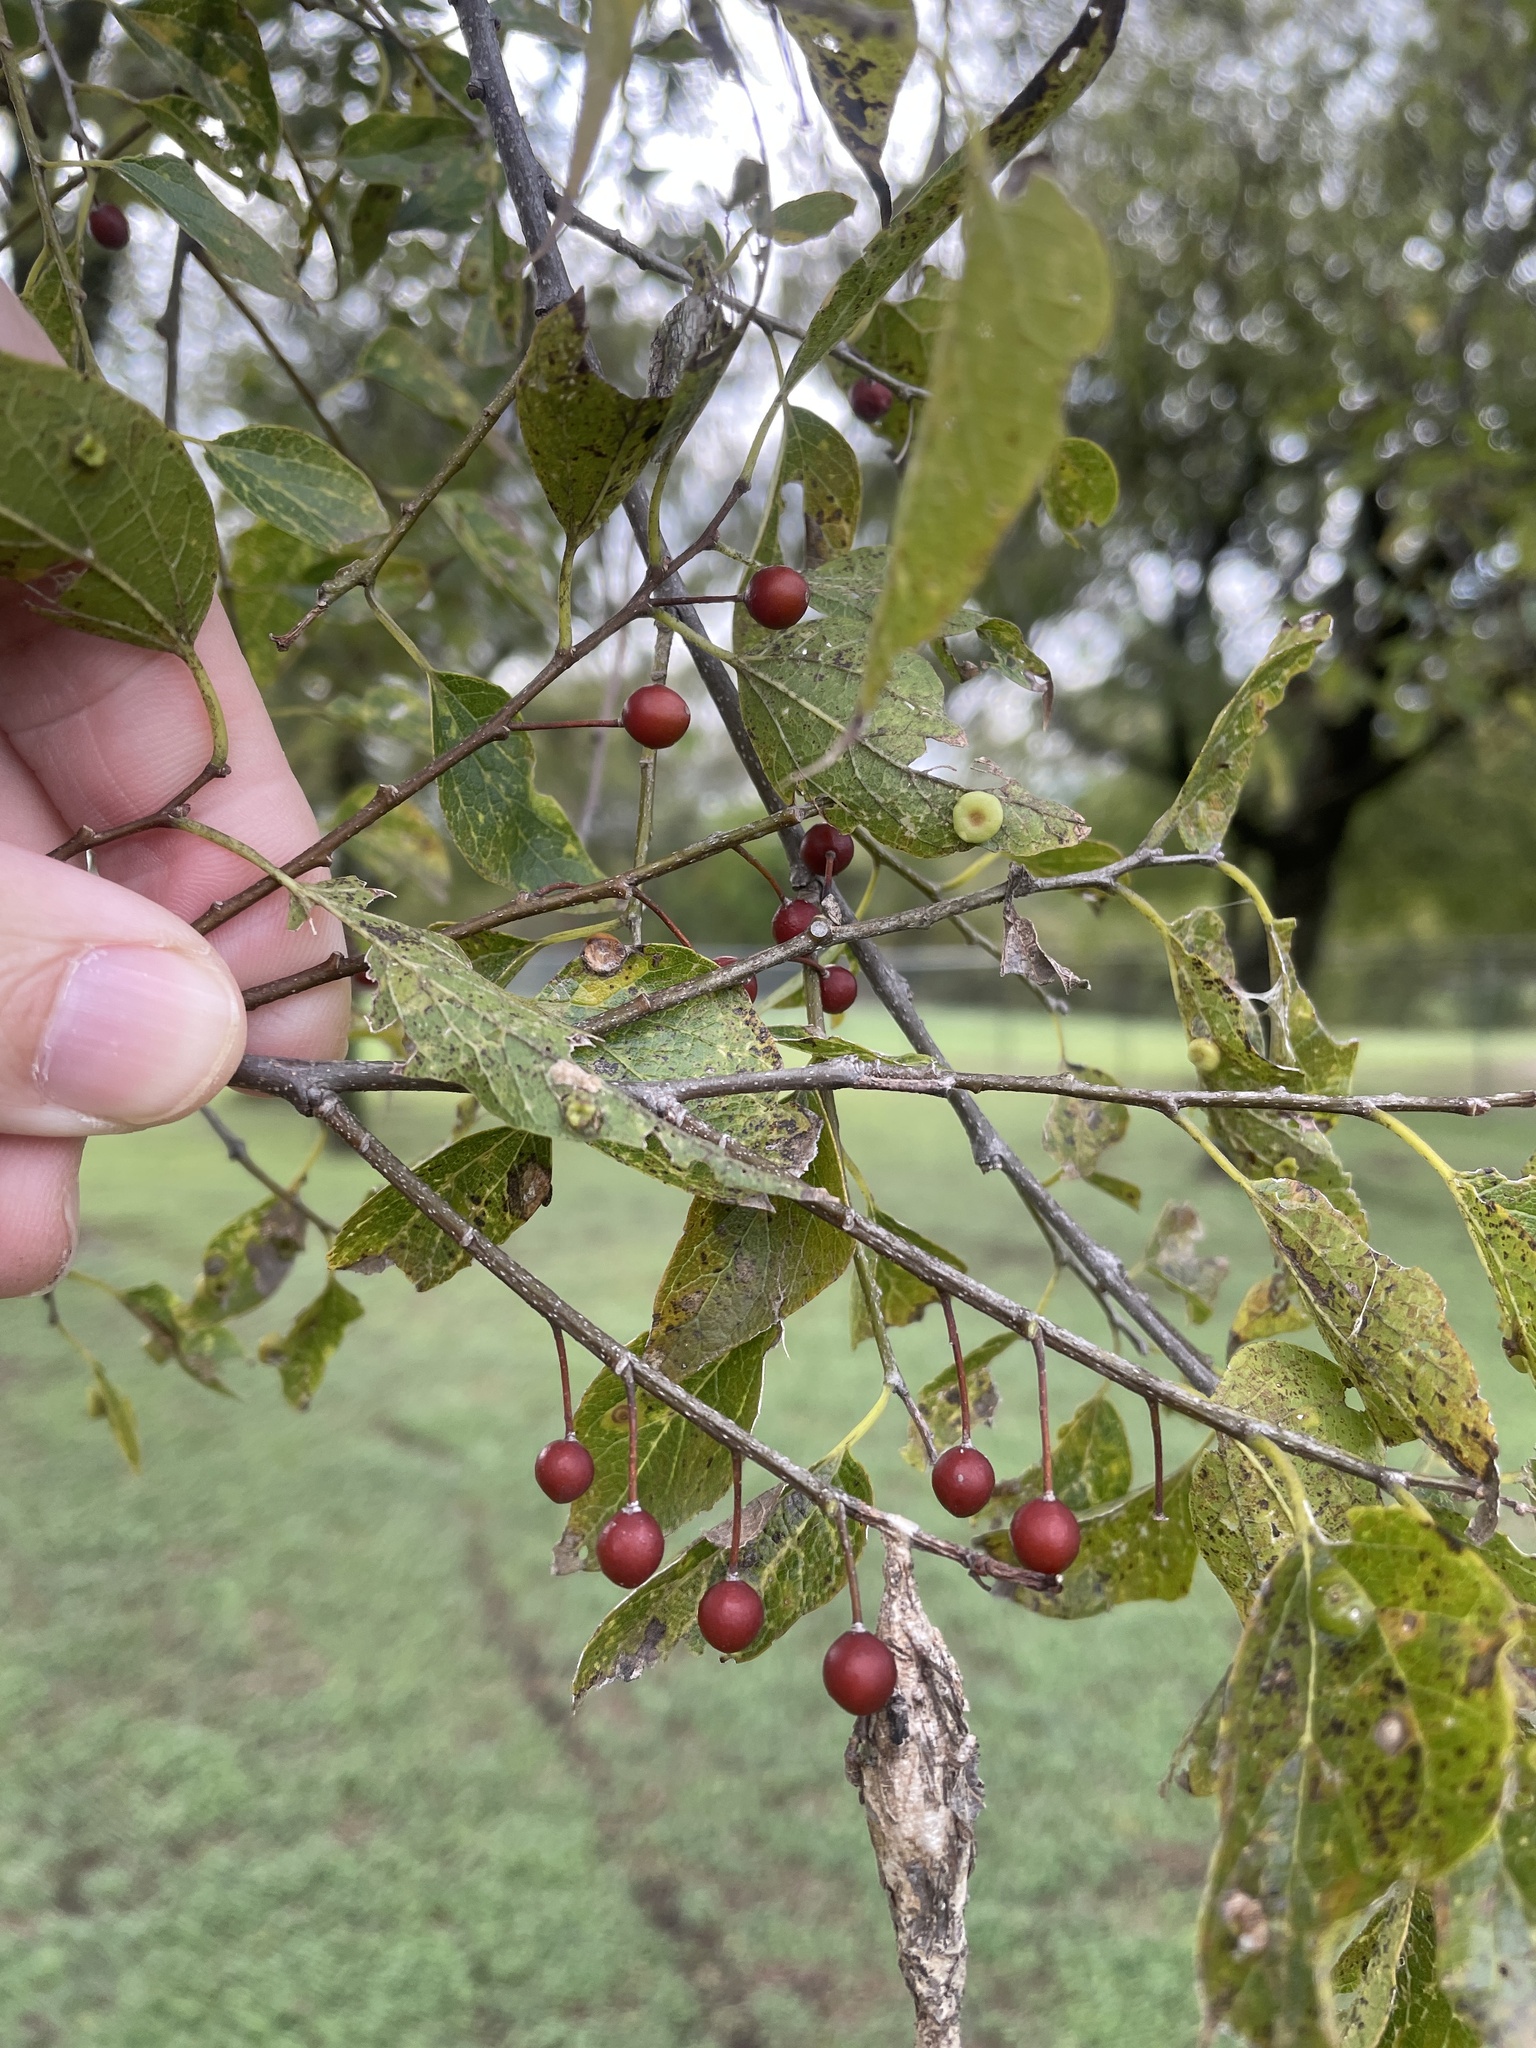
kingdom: Plantae
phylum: Tracheophyta
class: Magnoliopsida
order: Rosales
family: Cannabaceae
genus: Celtis
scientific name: Celtis laevigata
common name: Sugarberry
